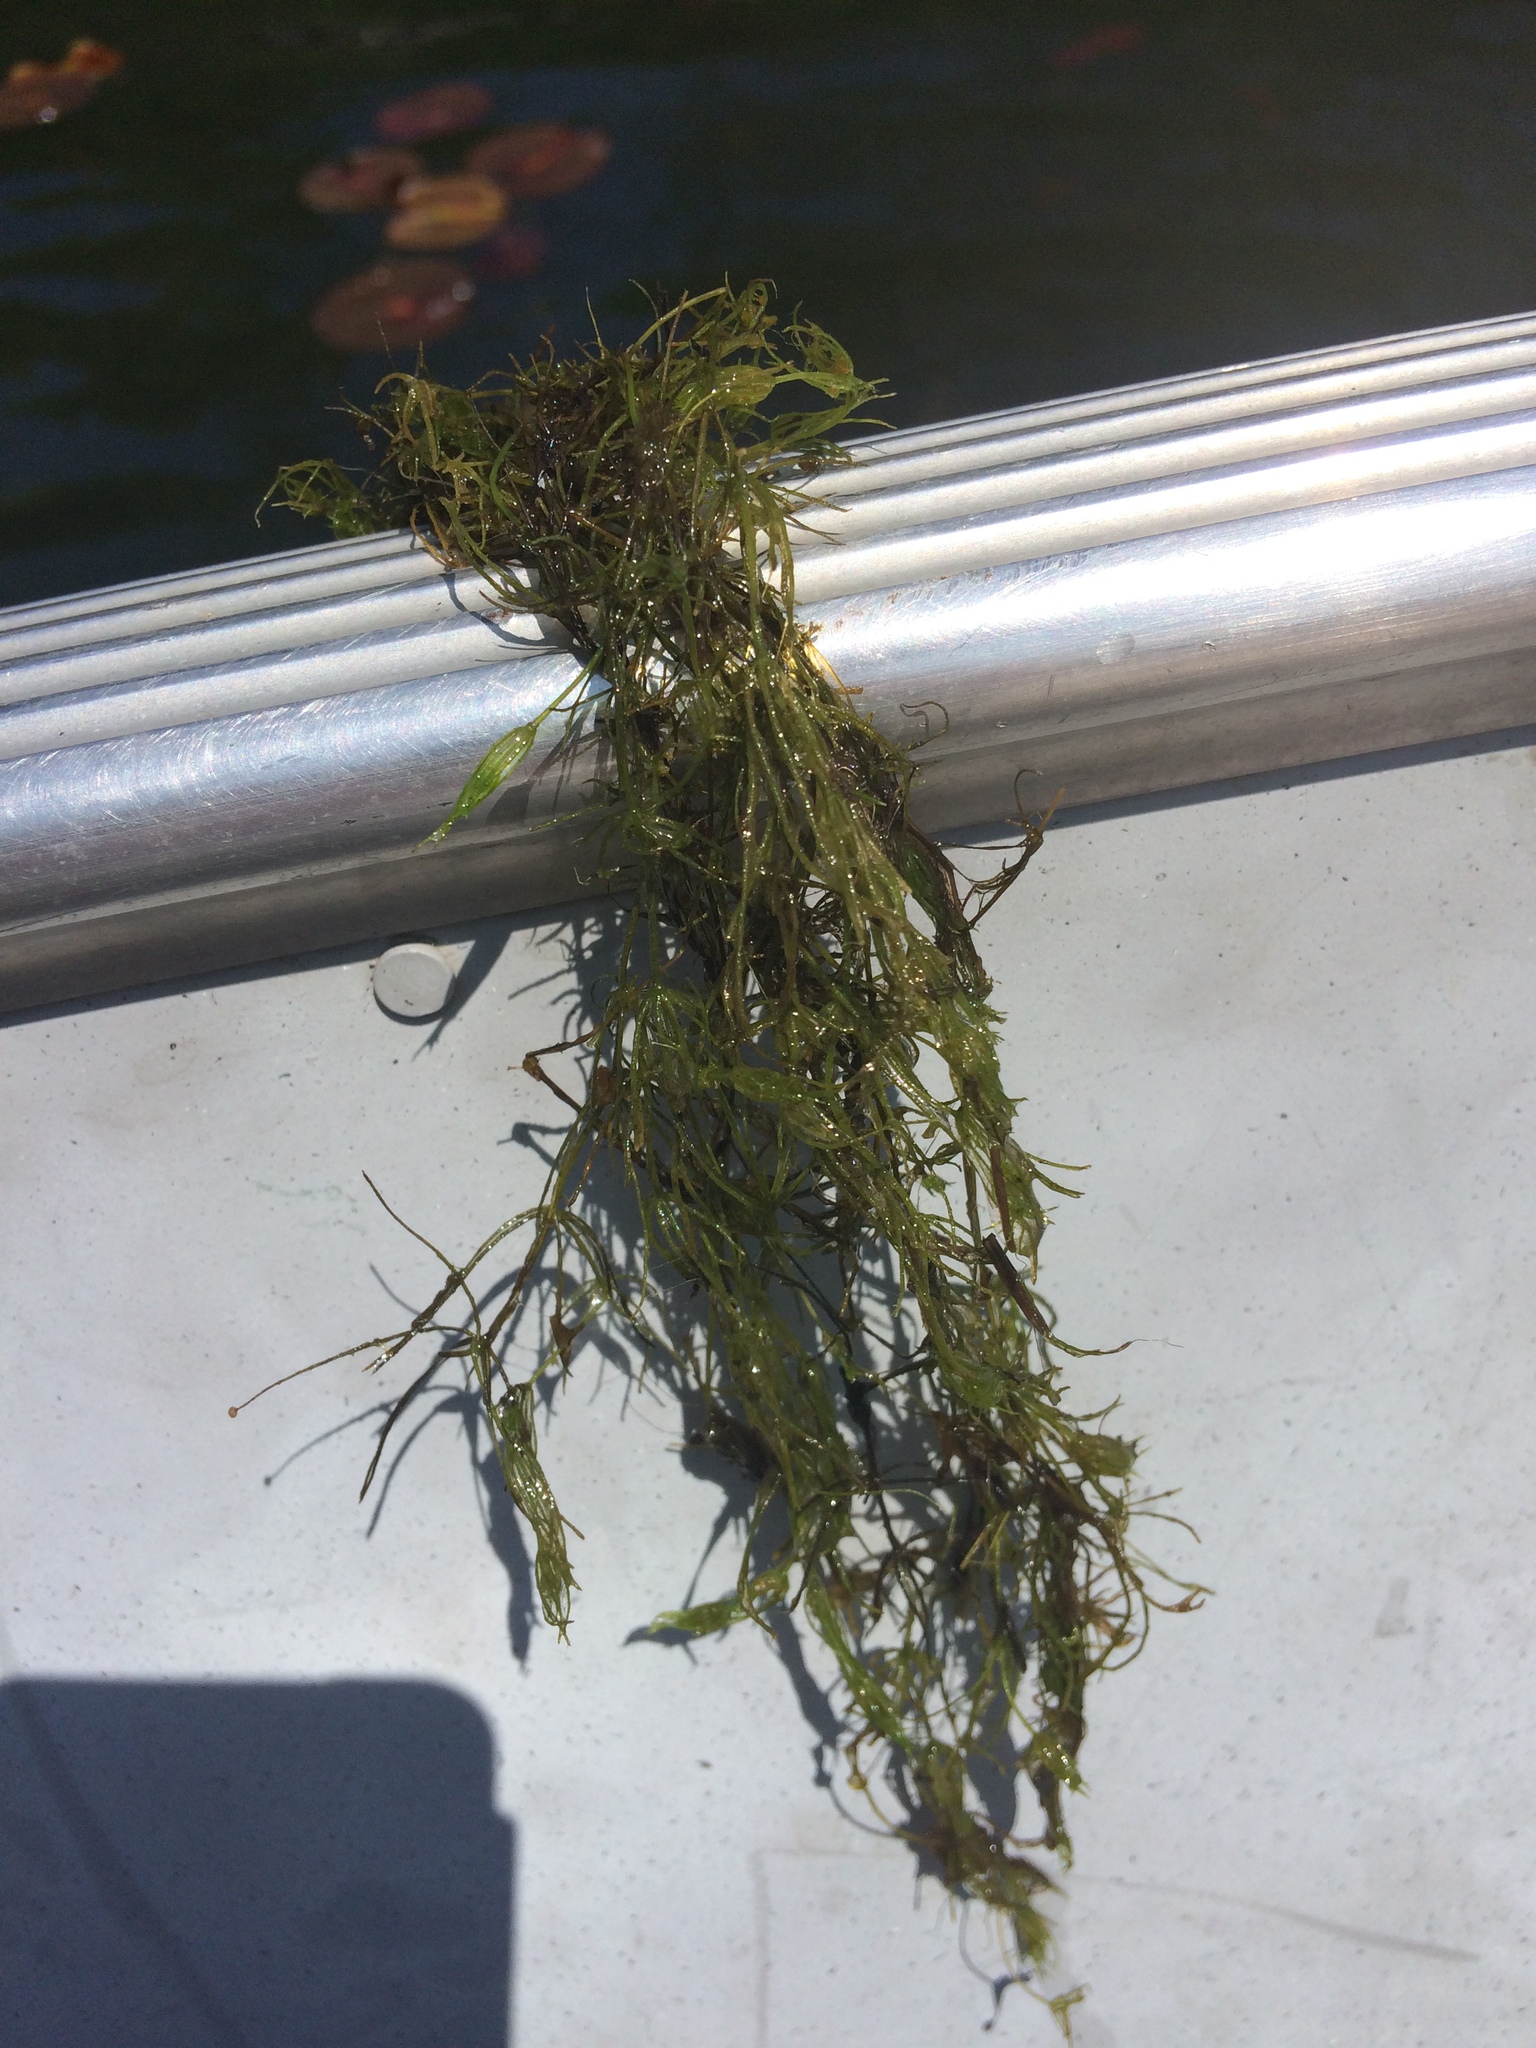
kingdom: Plantae
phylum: Charophyta
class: Charophyceae
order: Charales
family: Characeae
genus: Chara
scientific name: Chara
